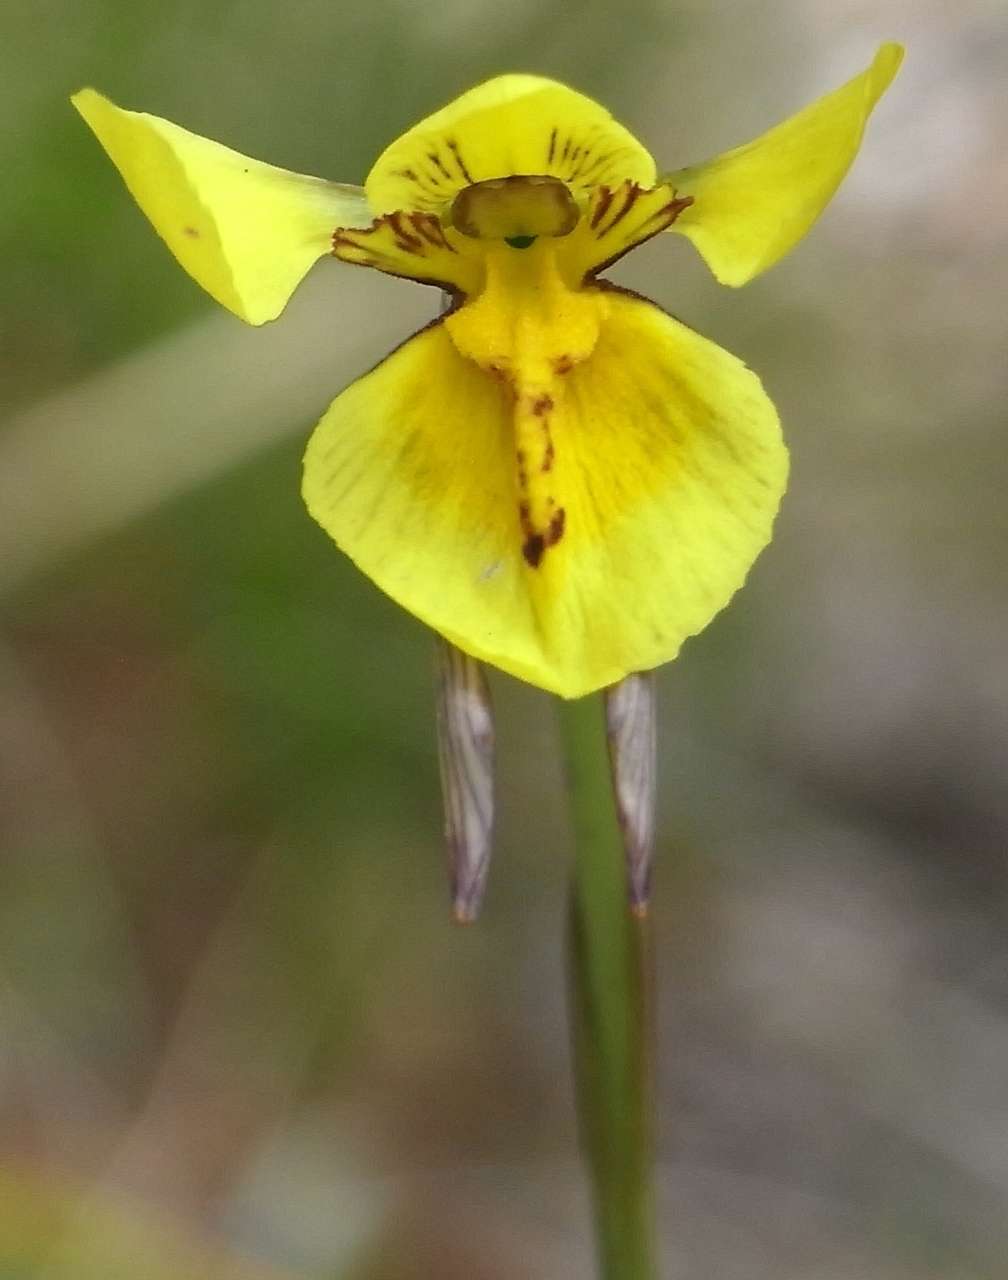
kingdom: Plantae
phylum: Tracheophyta
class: Liliopsida
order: Asparagales
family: Orchidaceae
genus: Diuris
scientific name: Diuris chryseopsis
